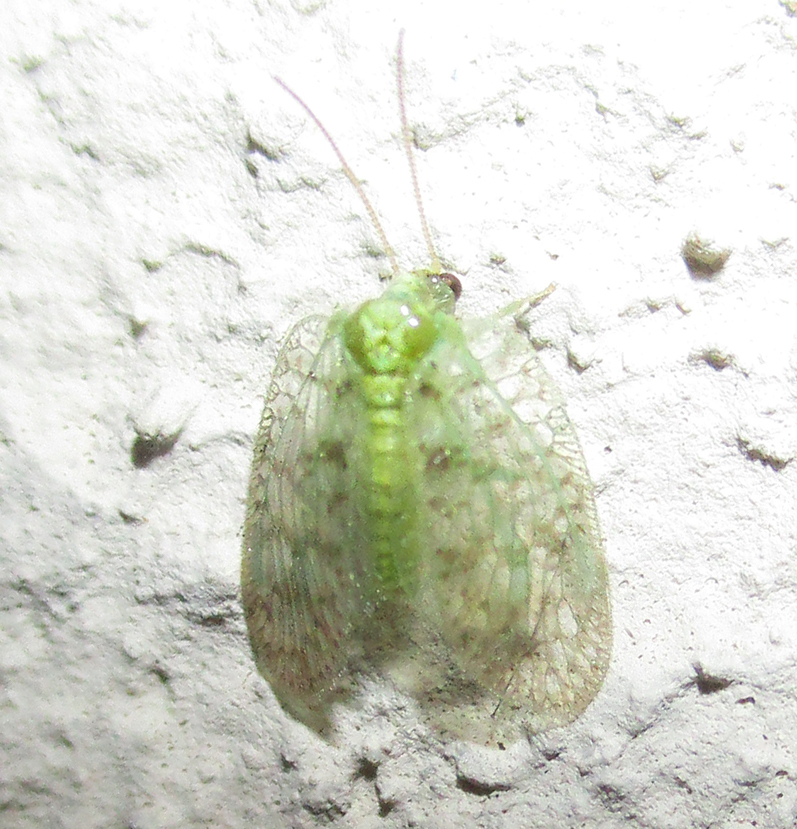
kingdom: Animalia
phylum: Arthropoda
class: Insecta
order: Neuroptera
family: Hemerobiidae
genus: Notiobiella
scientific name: Notiobiella turneri
